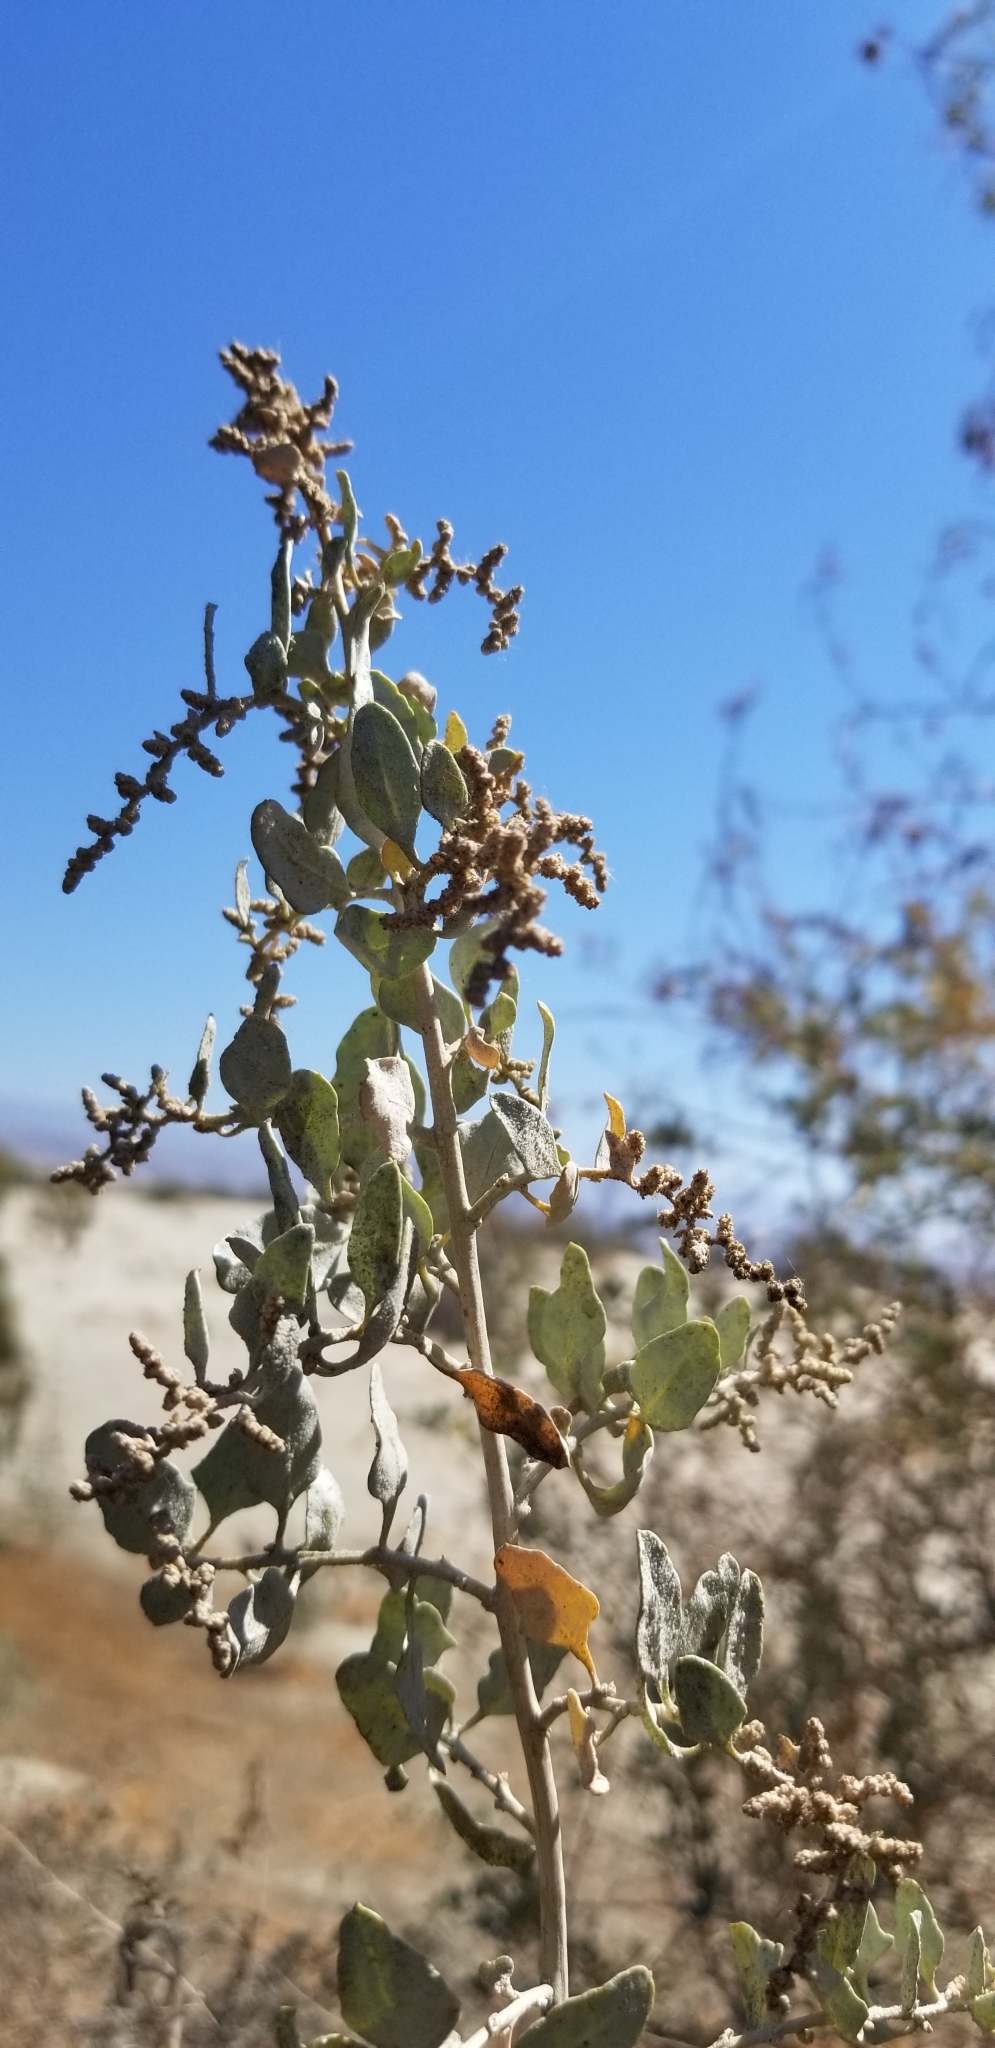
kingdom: Plantae
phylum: Tracheophyta
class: Magnoliopsida
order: Caryophyllales
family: Amaranthaceae
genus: Atriplex
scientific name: Atriplex lentiformis
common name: Big saltbush
